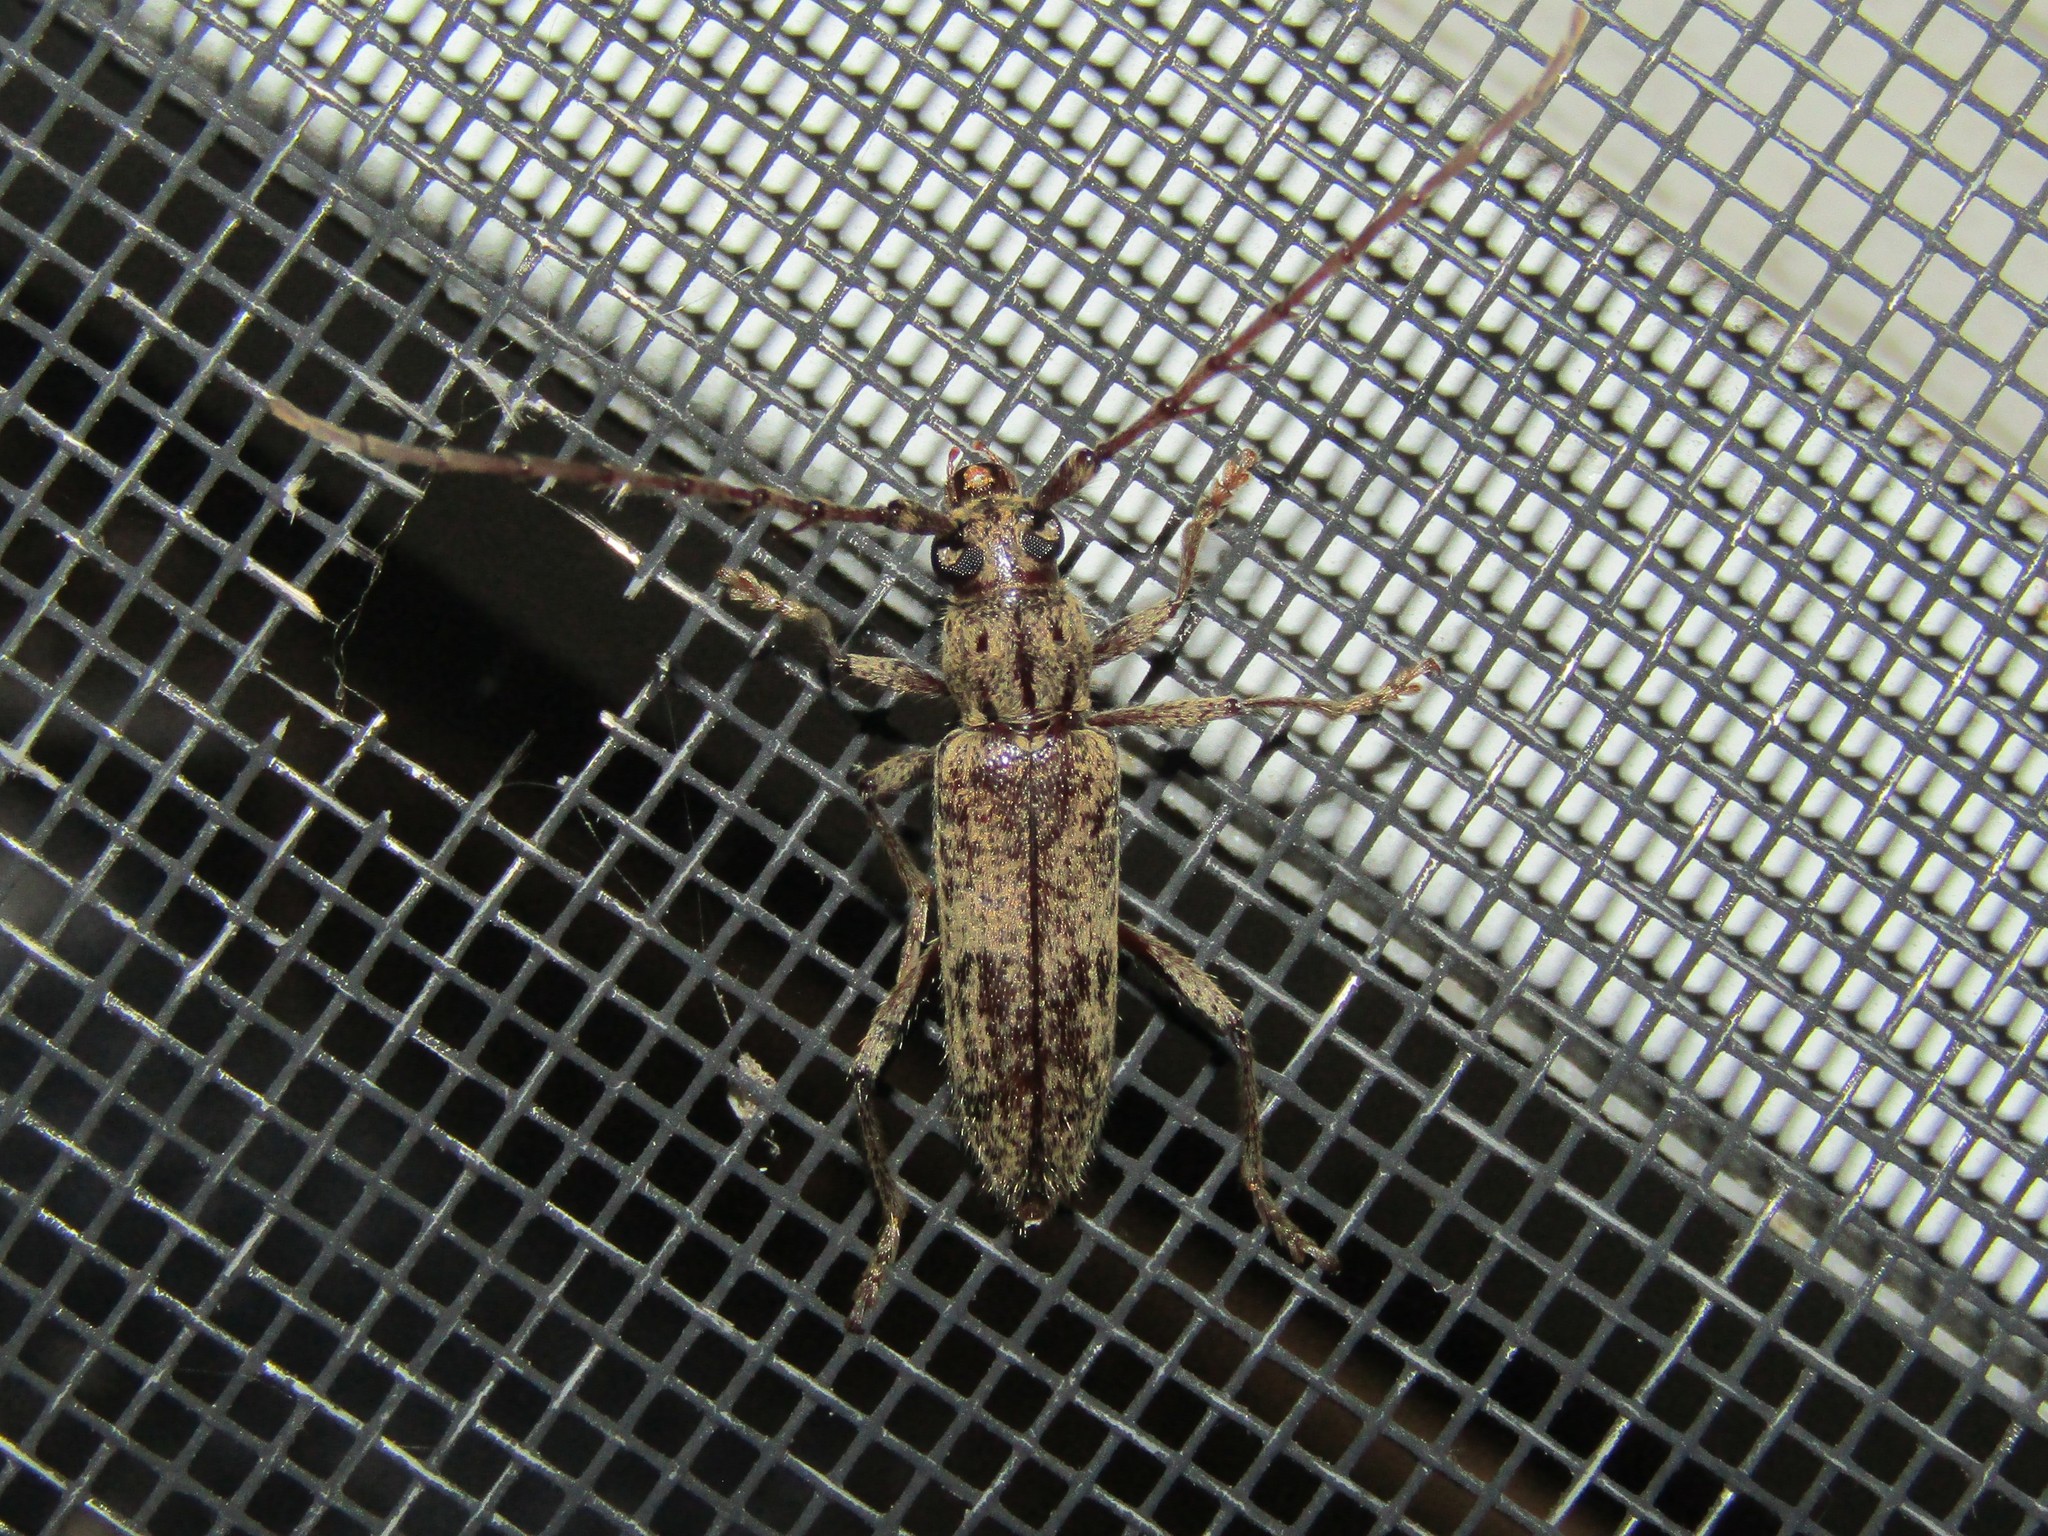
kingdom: Animalia
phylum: Arthropoda
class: Insecta
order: Coleoptera
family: Cerambycidae
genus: Elaphidion
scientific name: Elaphidion mucronatum
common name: Spined oak borer
